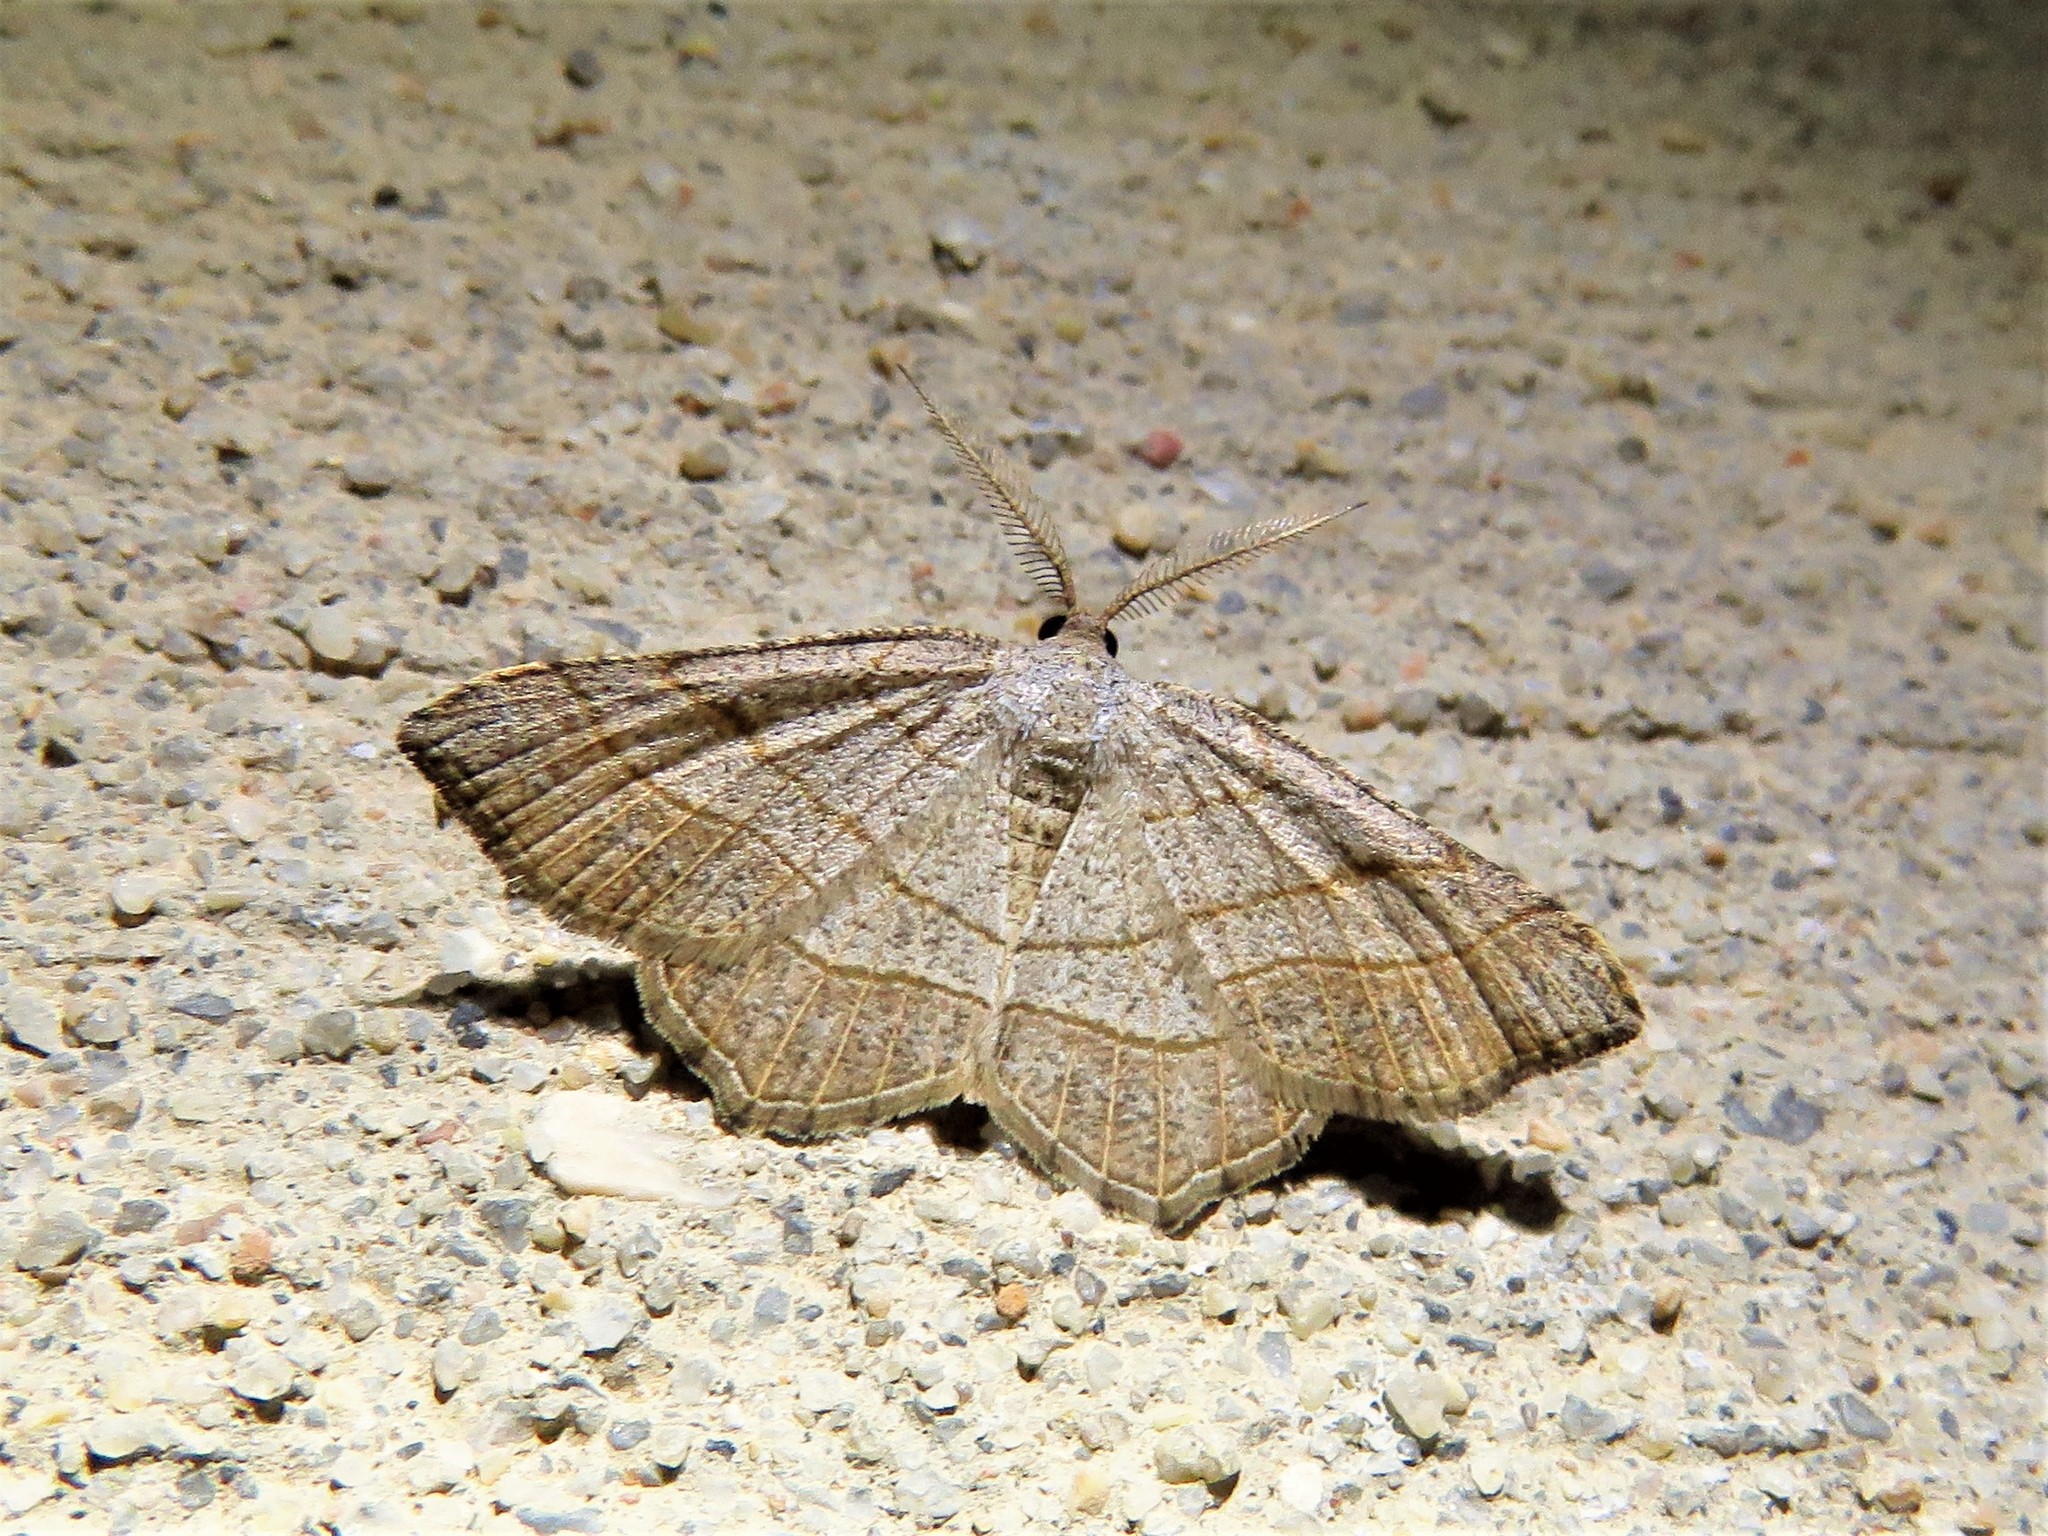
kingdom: Animalia
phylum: Arthropoda
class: Insecta
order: Lepidoptera
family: Geometridae
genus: Eumacaria
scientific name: Eumacaria madopata
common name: Brown-bordered geometer
